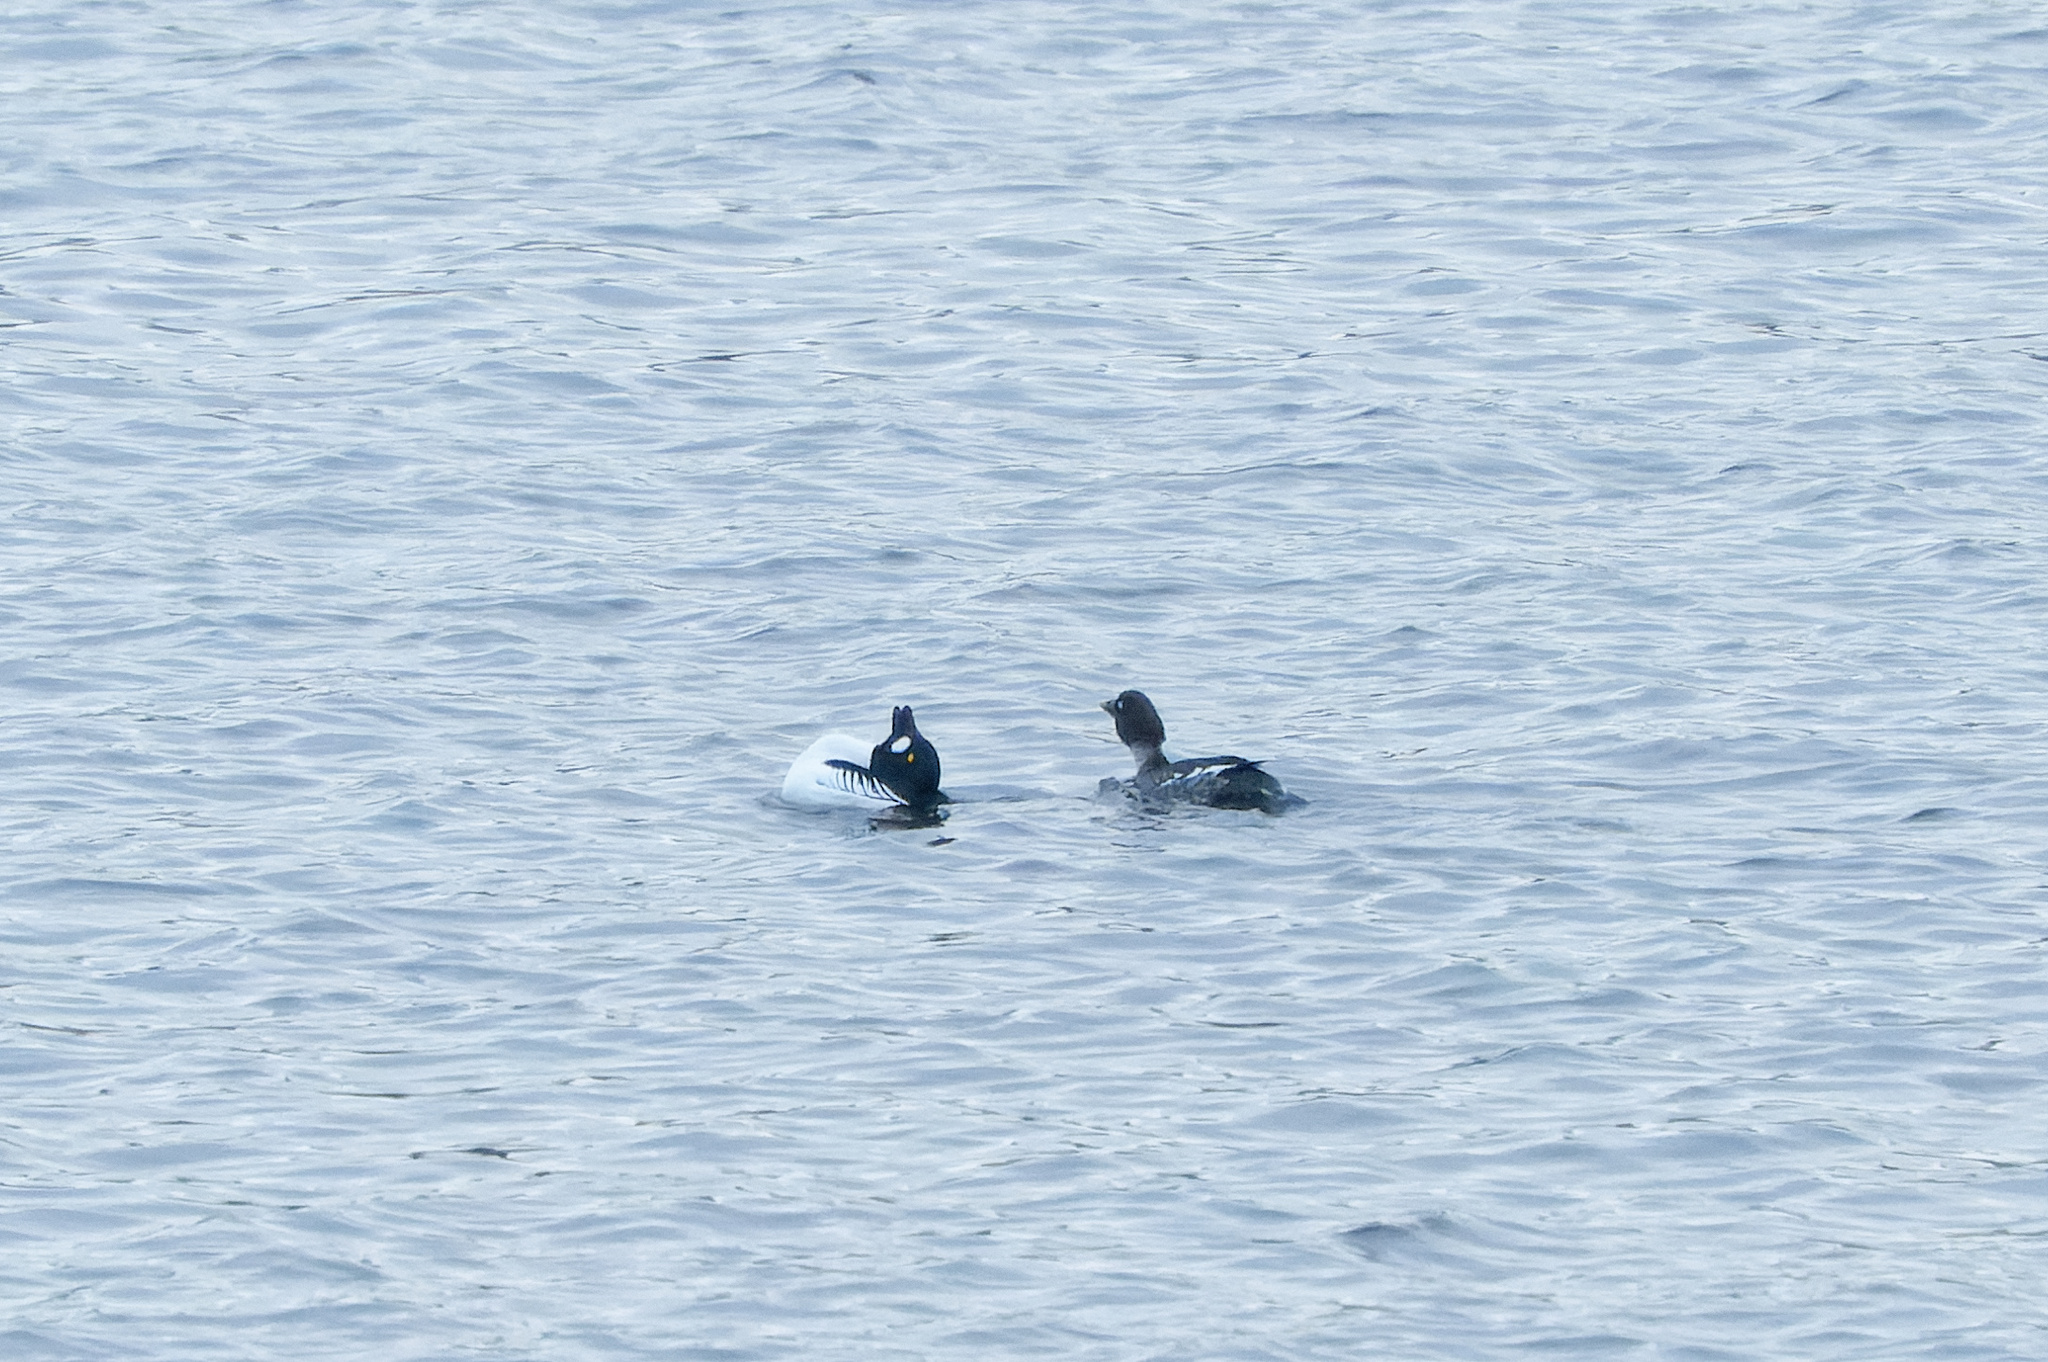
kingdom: Animalia
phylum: Chordata
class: Aves
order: Anseriformes
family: Anatidae
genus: Bucephala
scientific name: Bucephala clangula
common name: Common goldeneye
